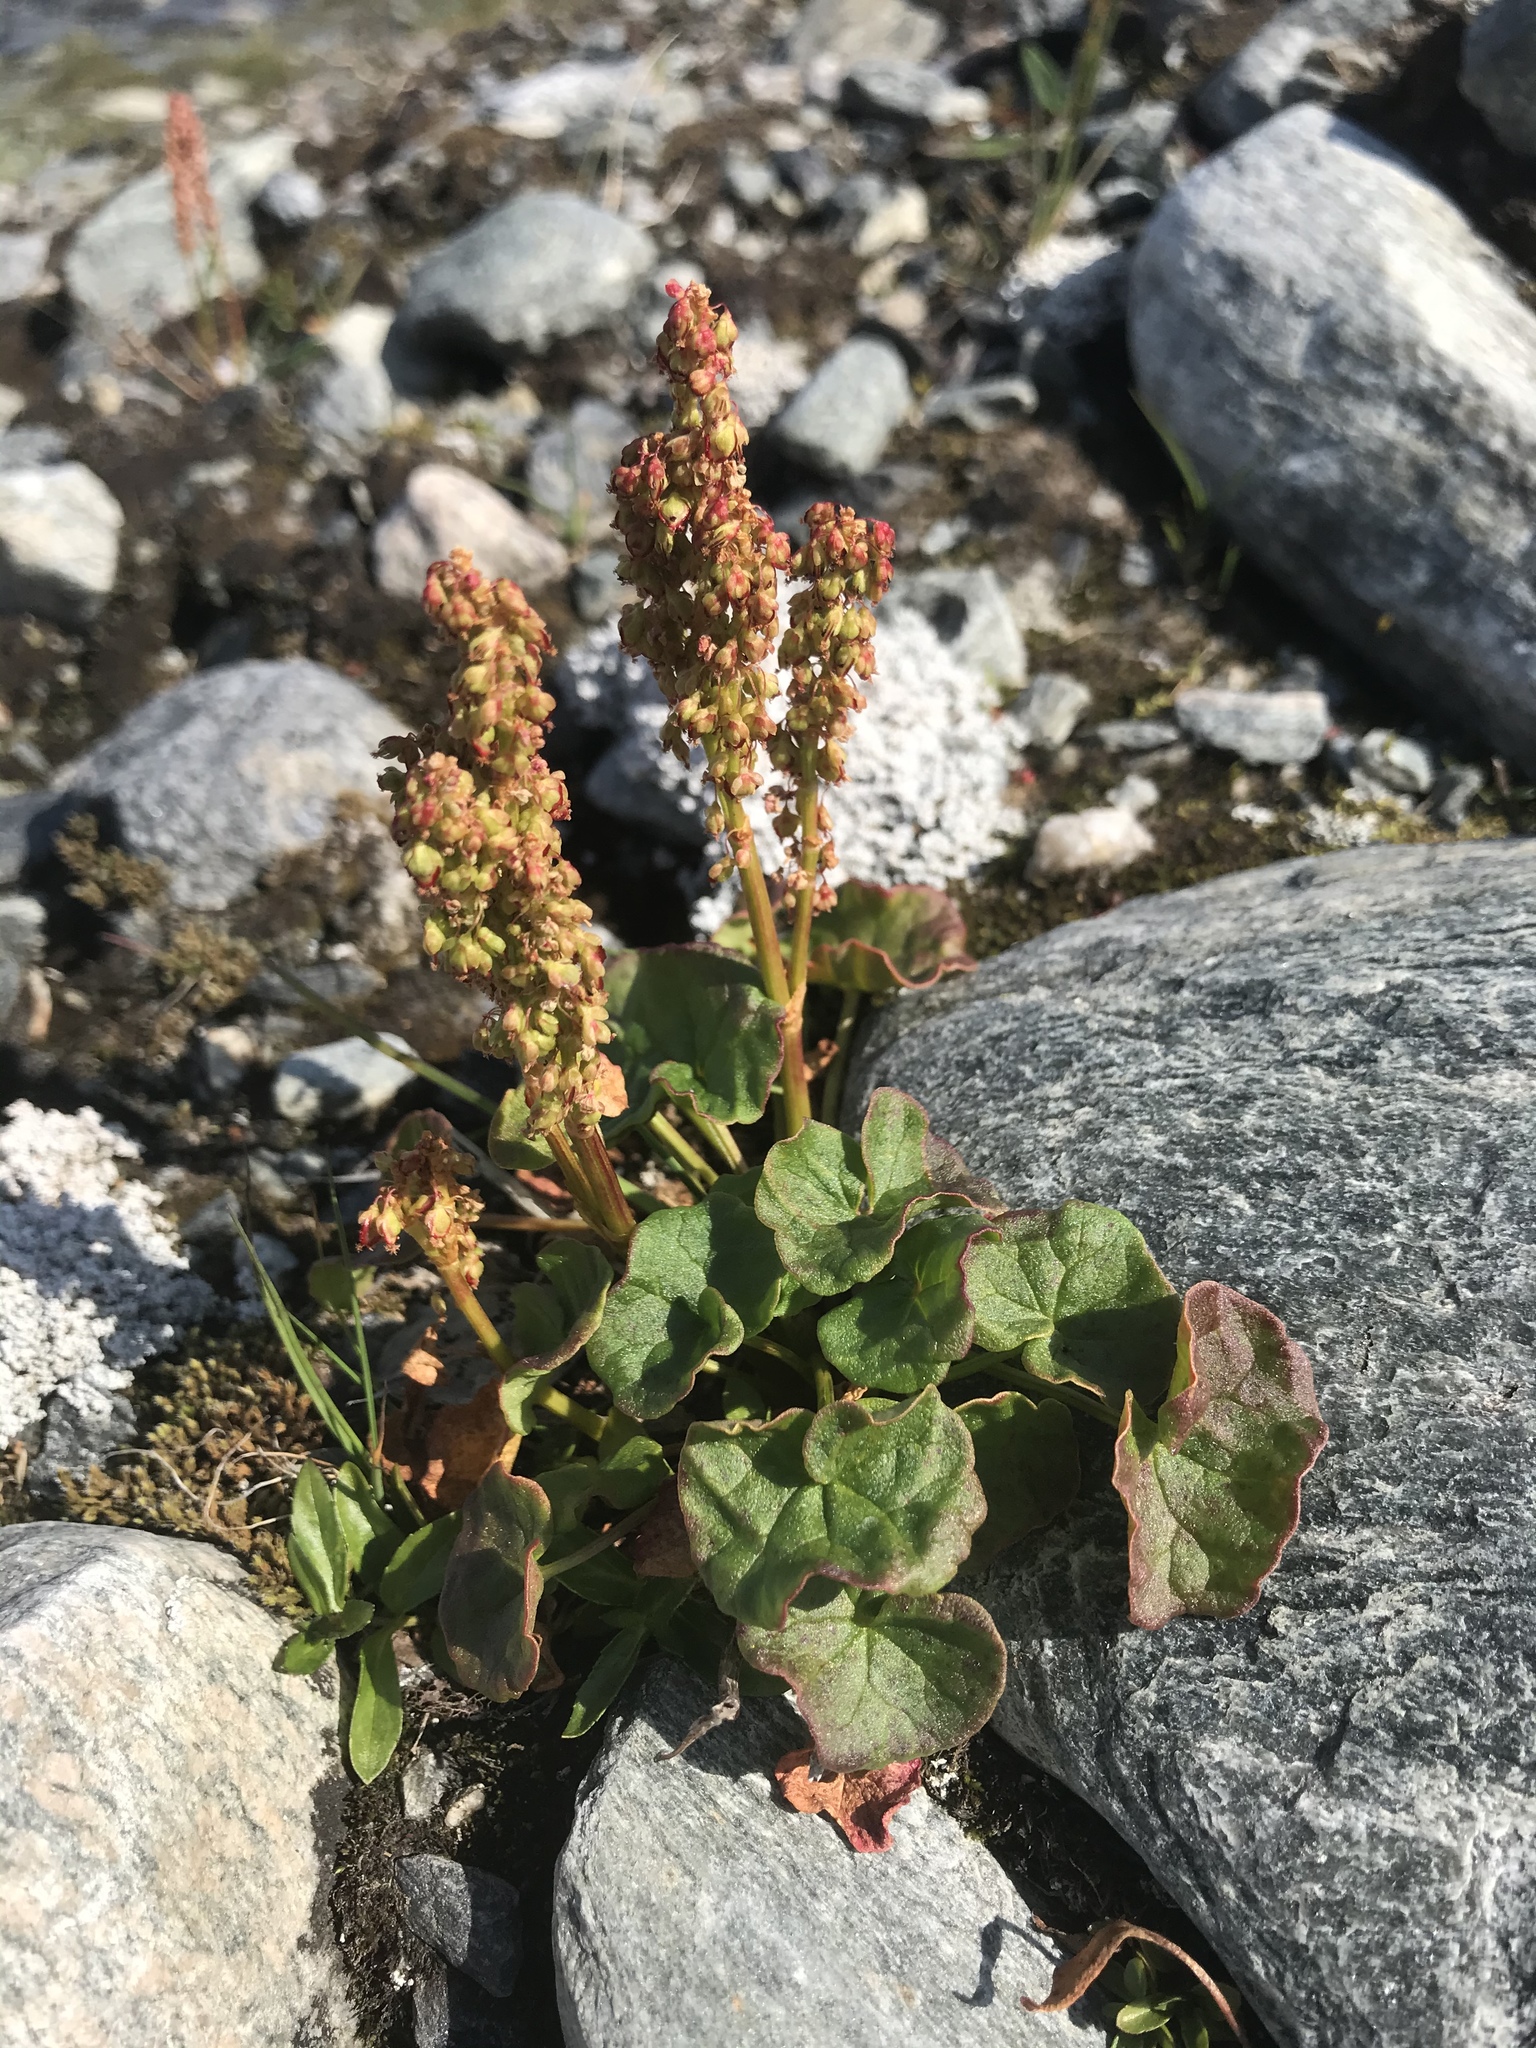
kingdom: Plantae
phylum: Tracheophyta
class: Magnoliopsida
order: Caryophyllales
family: Polygonaceae
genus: Oxyria
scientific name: Oxyria digyna
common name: Alpine mountain-sorrel
